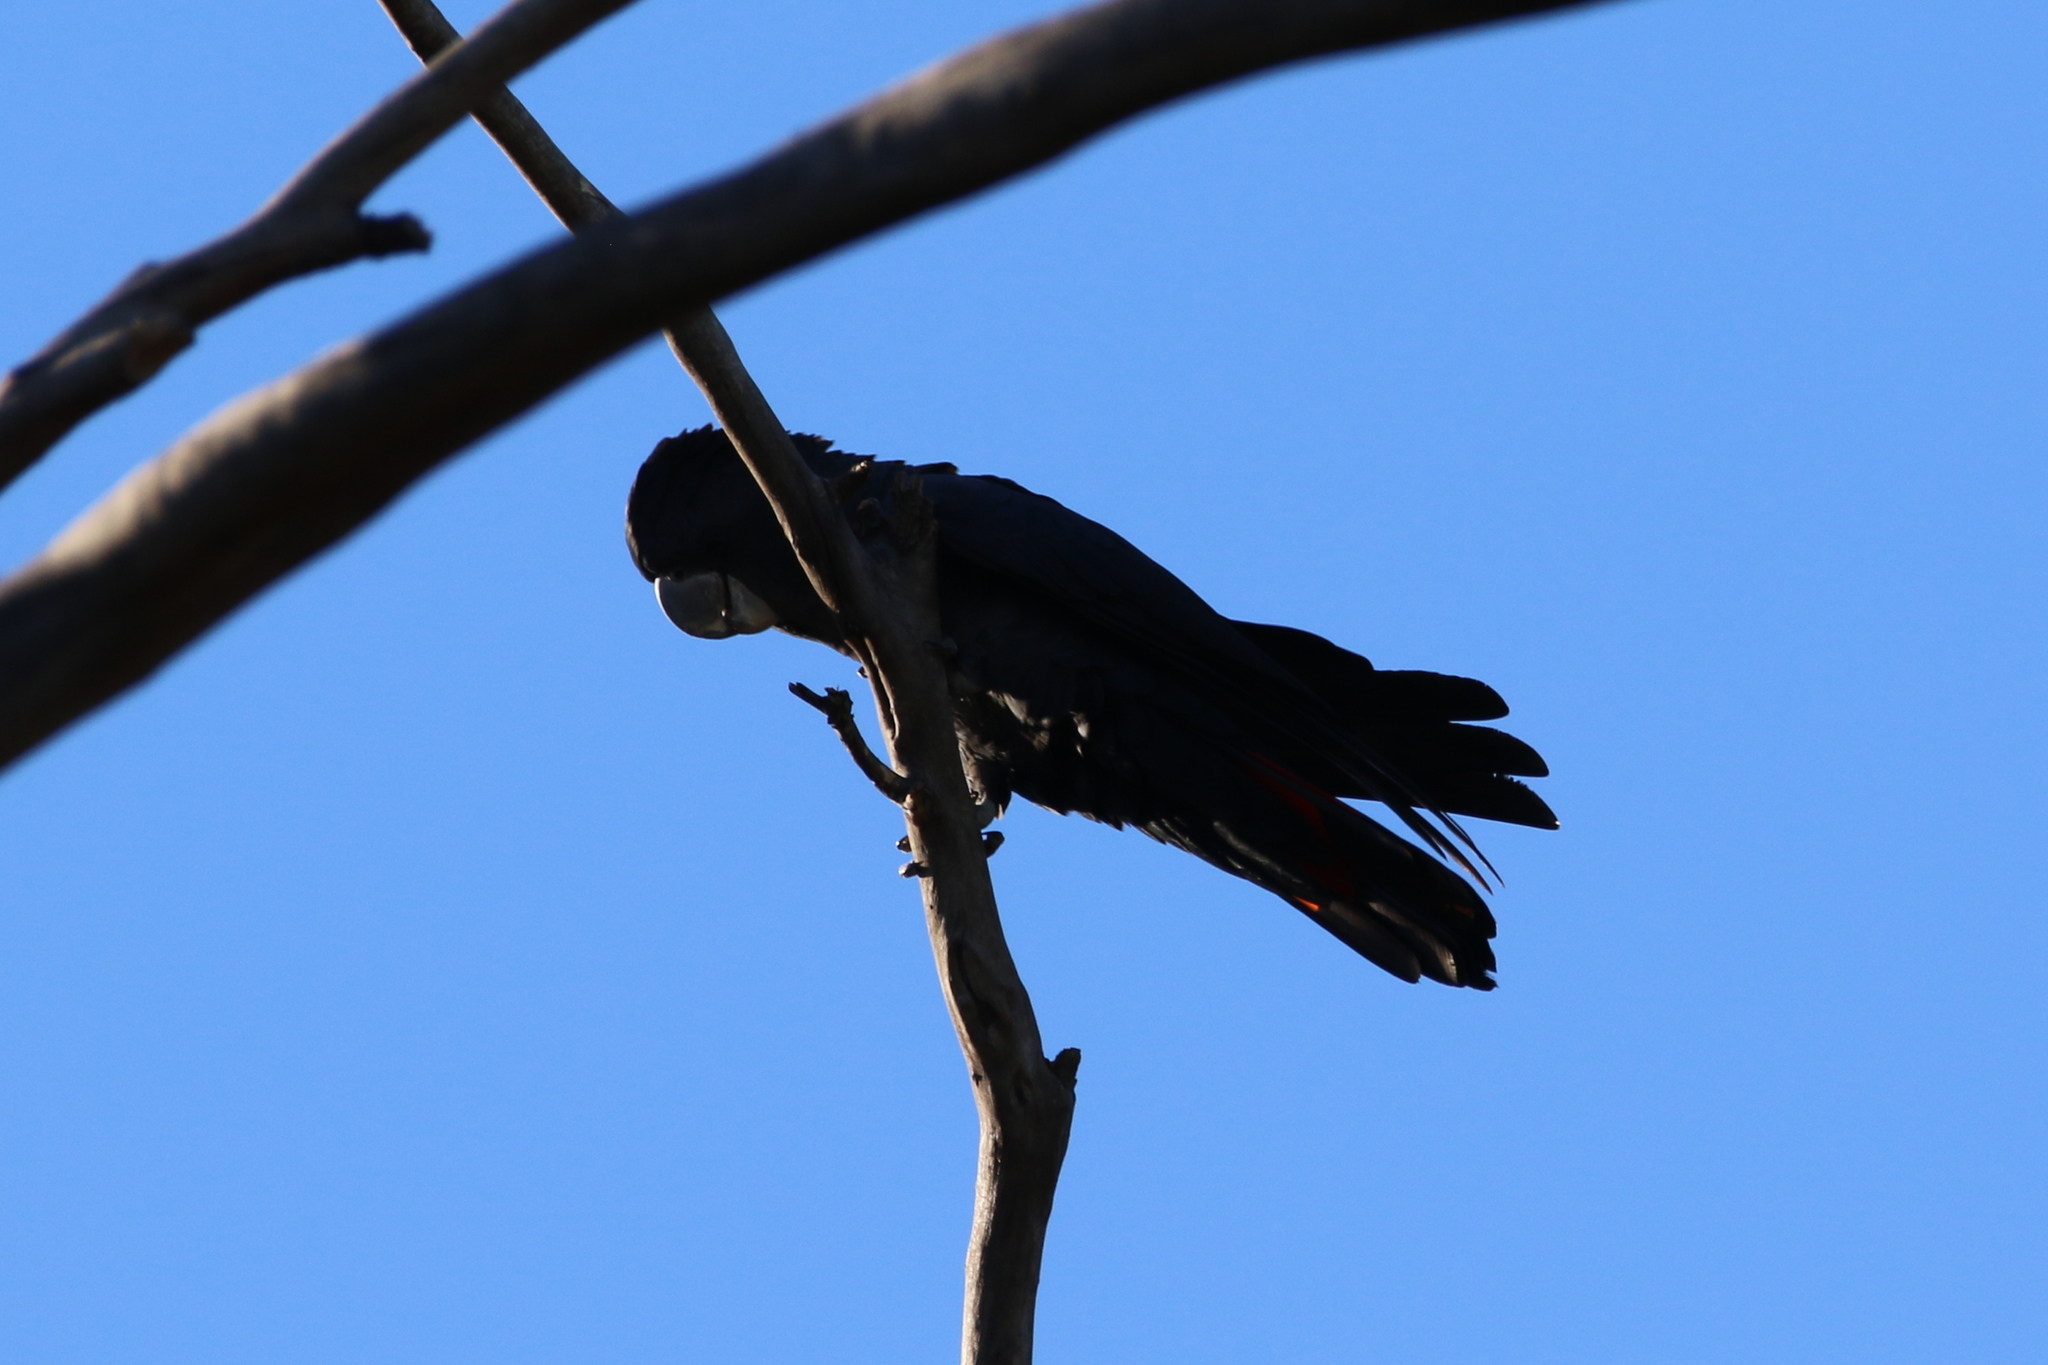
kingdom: Animalia
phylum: Chordata
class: Aves
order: Psittaciformes
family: Psittacidae
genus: Calyptorhynchus
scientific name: Calyptorhynchus banksii
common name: Red-tailed black cockatoo
